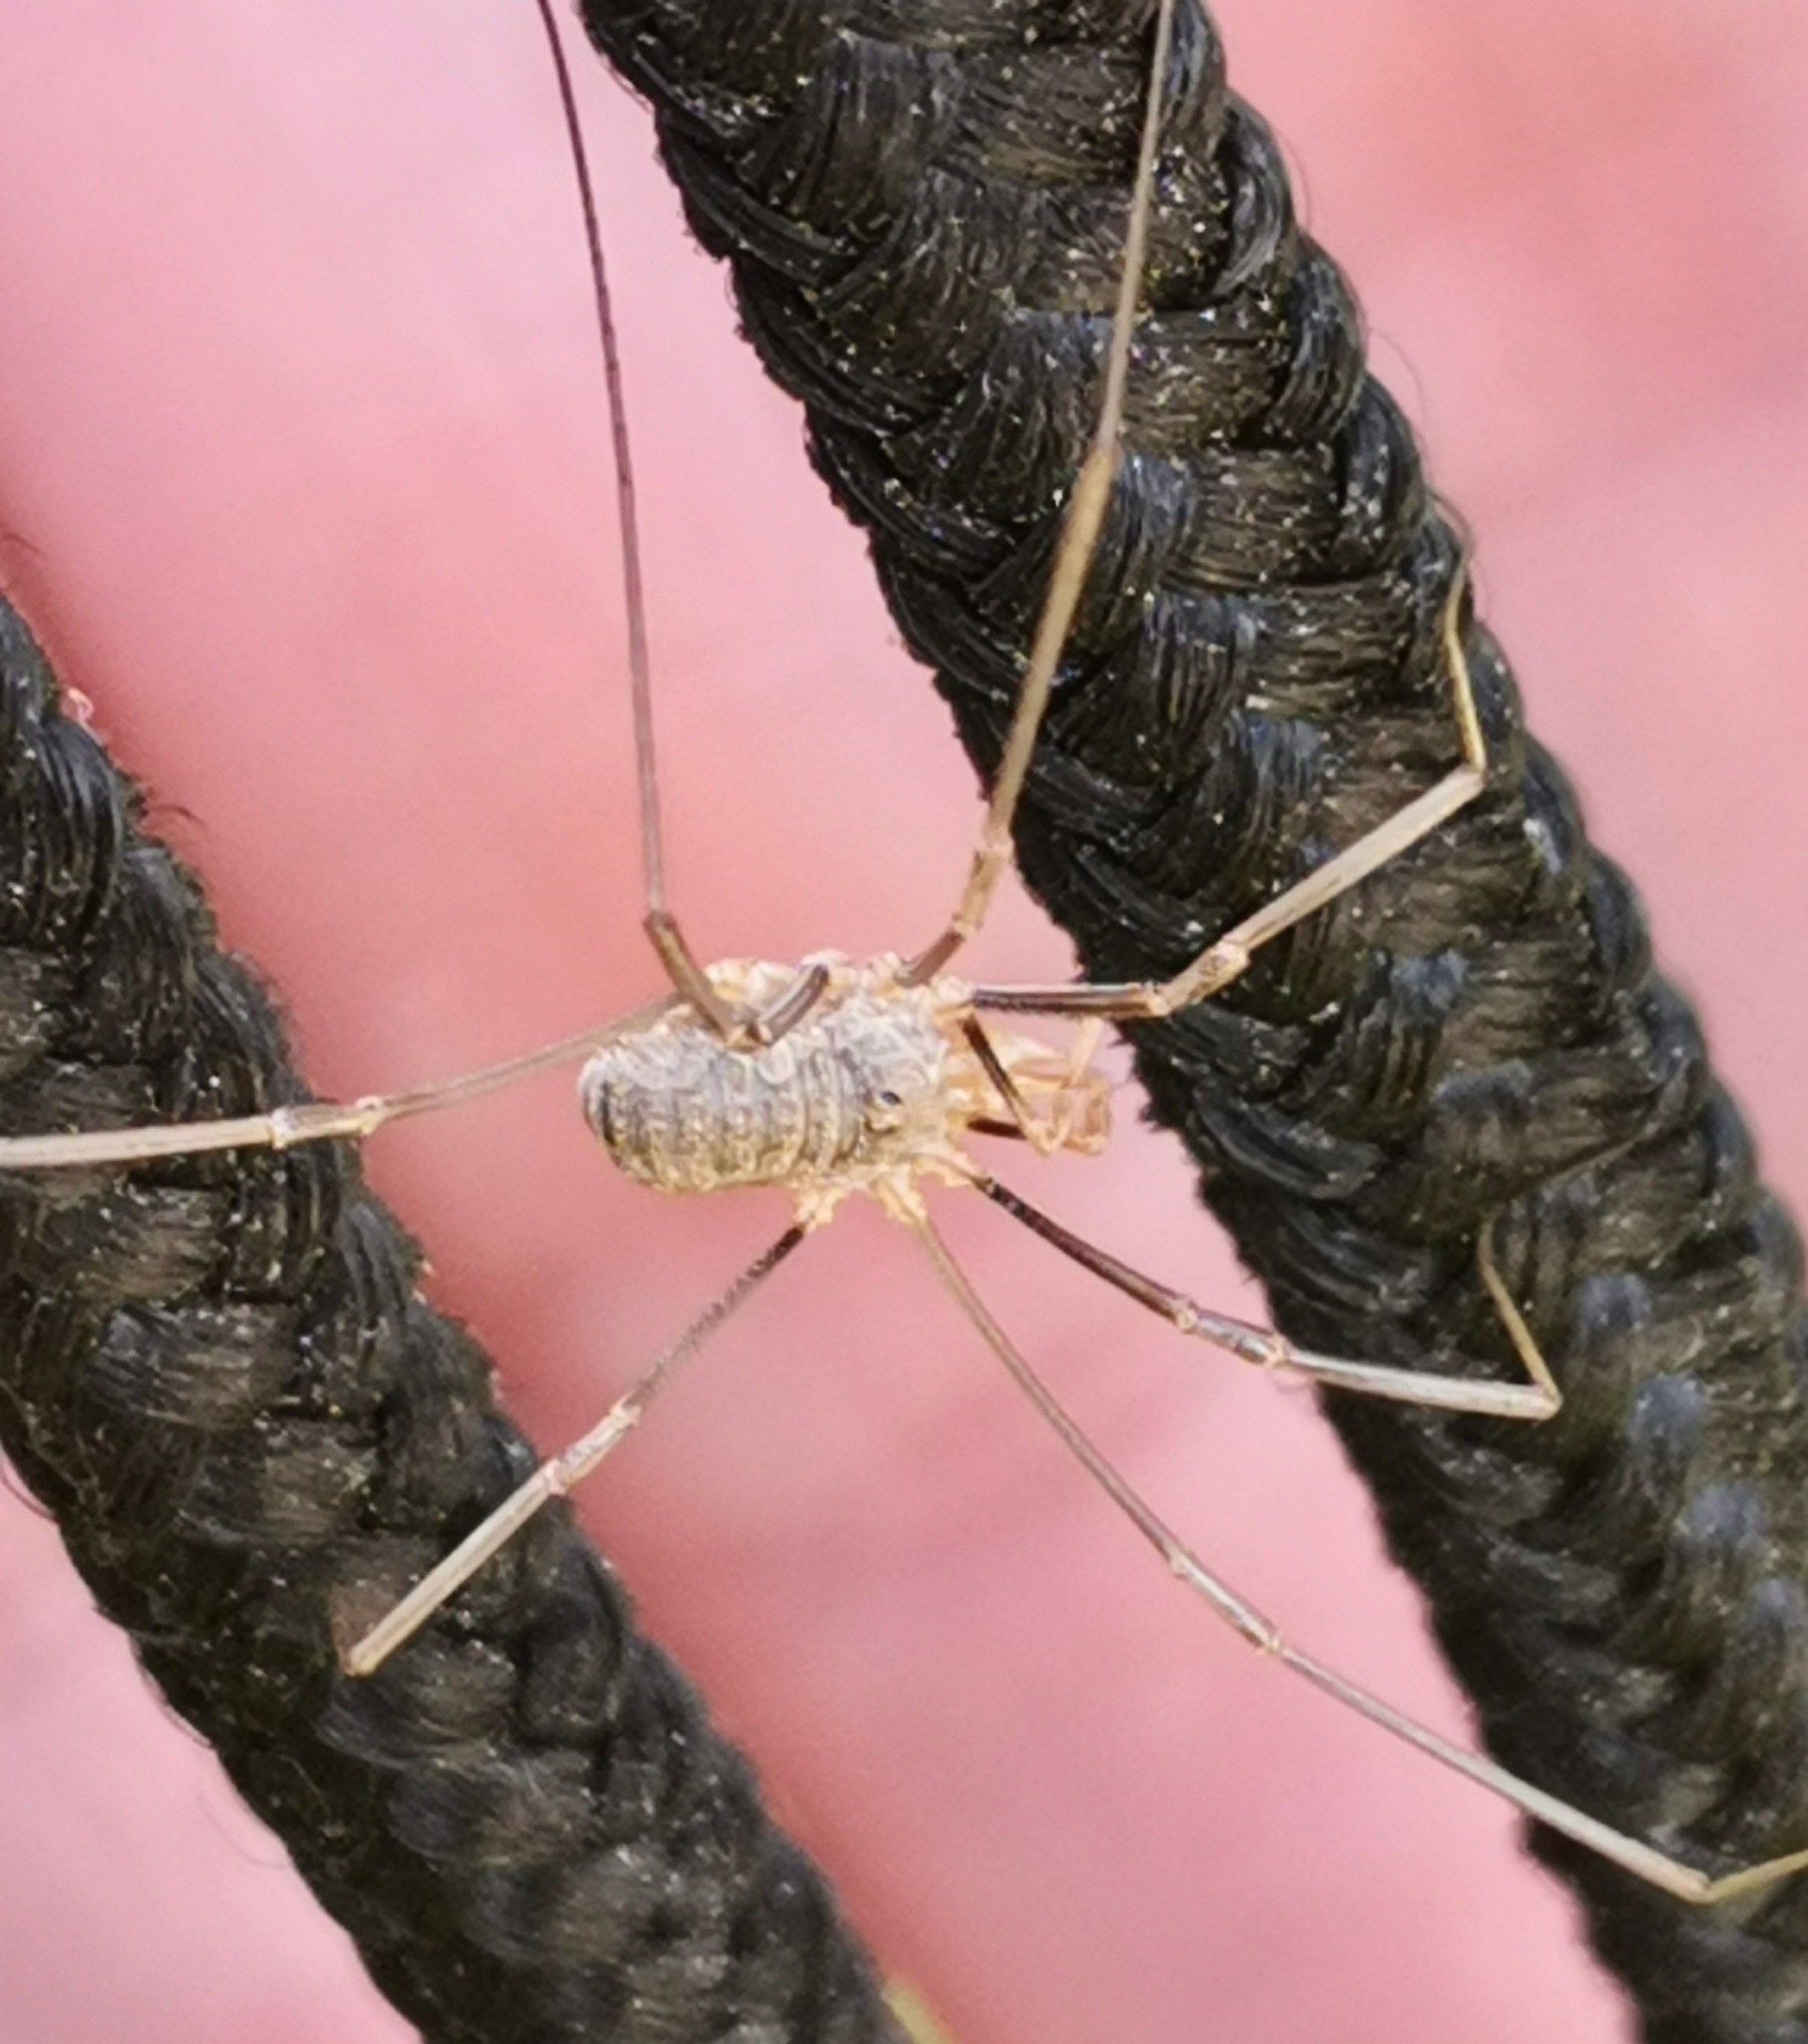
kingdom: Animalia
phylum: Arthropoda
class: Arachnida
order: Opiliones
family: Phalangiidae
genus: Phalangium
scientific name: Phalangium opilio
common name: Daddy longleg
